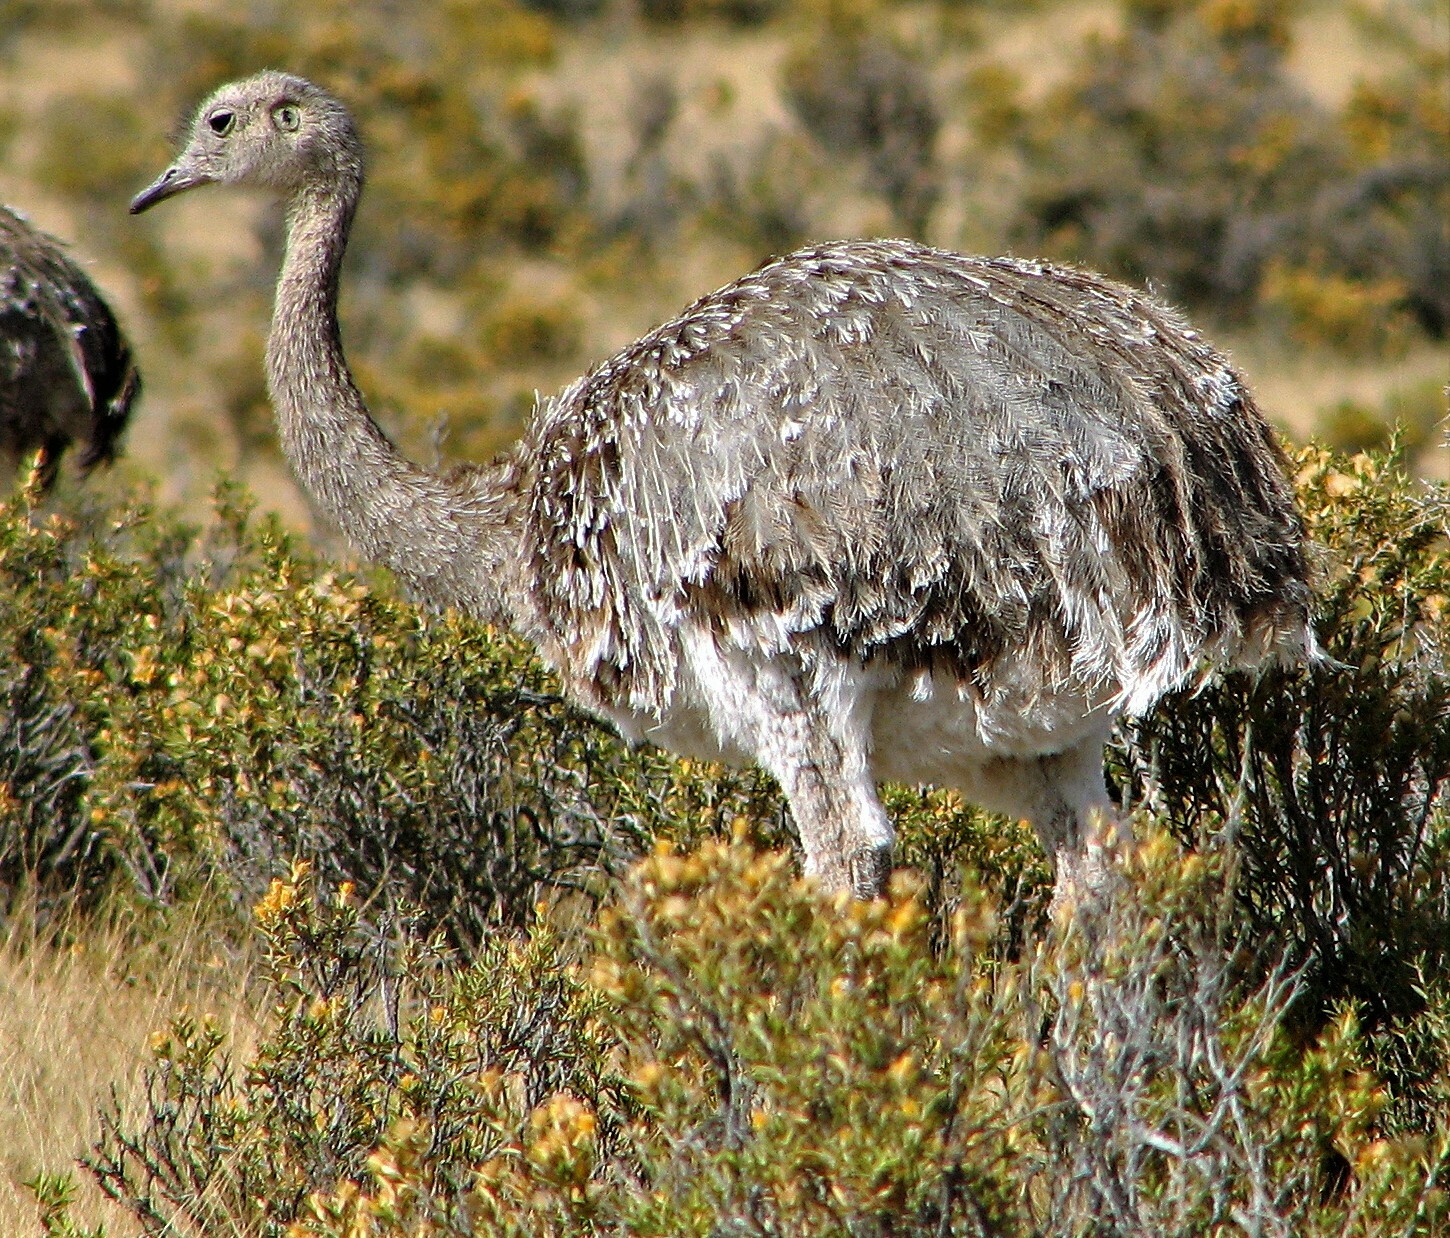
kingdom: Animalia
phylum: Chordata
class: Aves
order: Rheiformes
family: Rheidae
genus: Rhea
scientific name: Rhea pennata
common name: Lesser rhea
